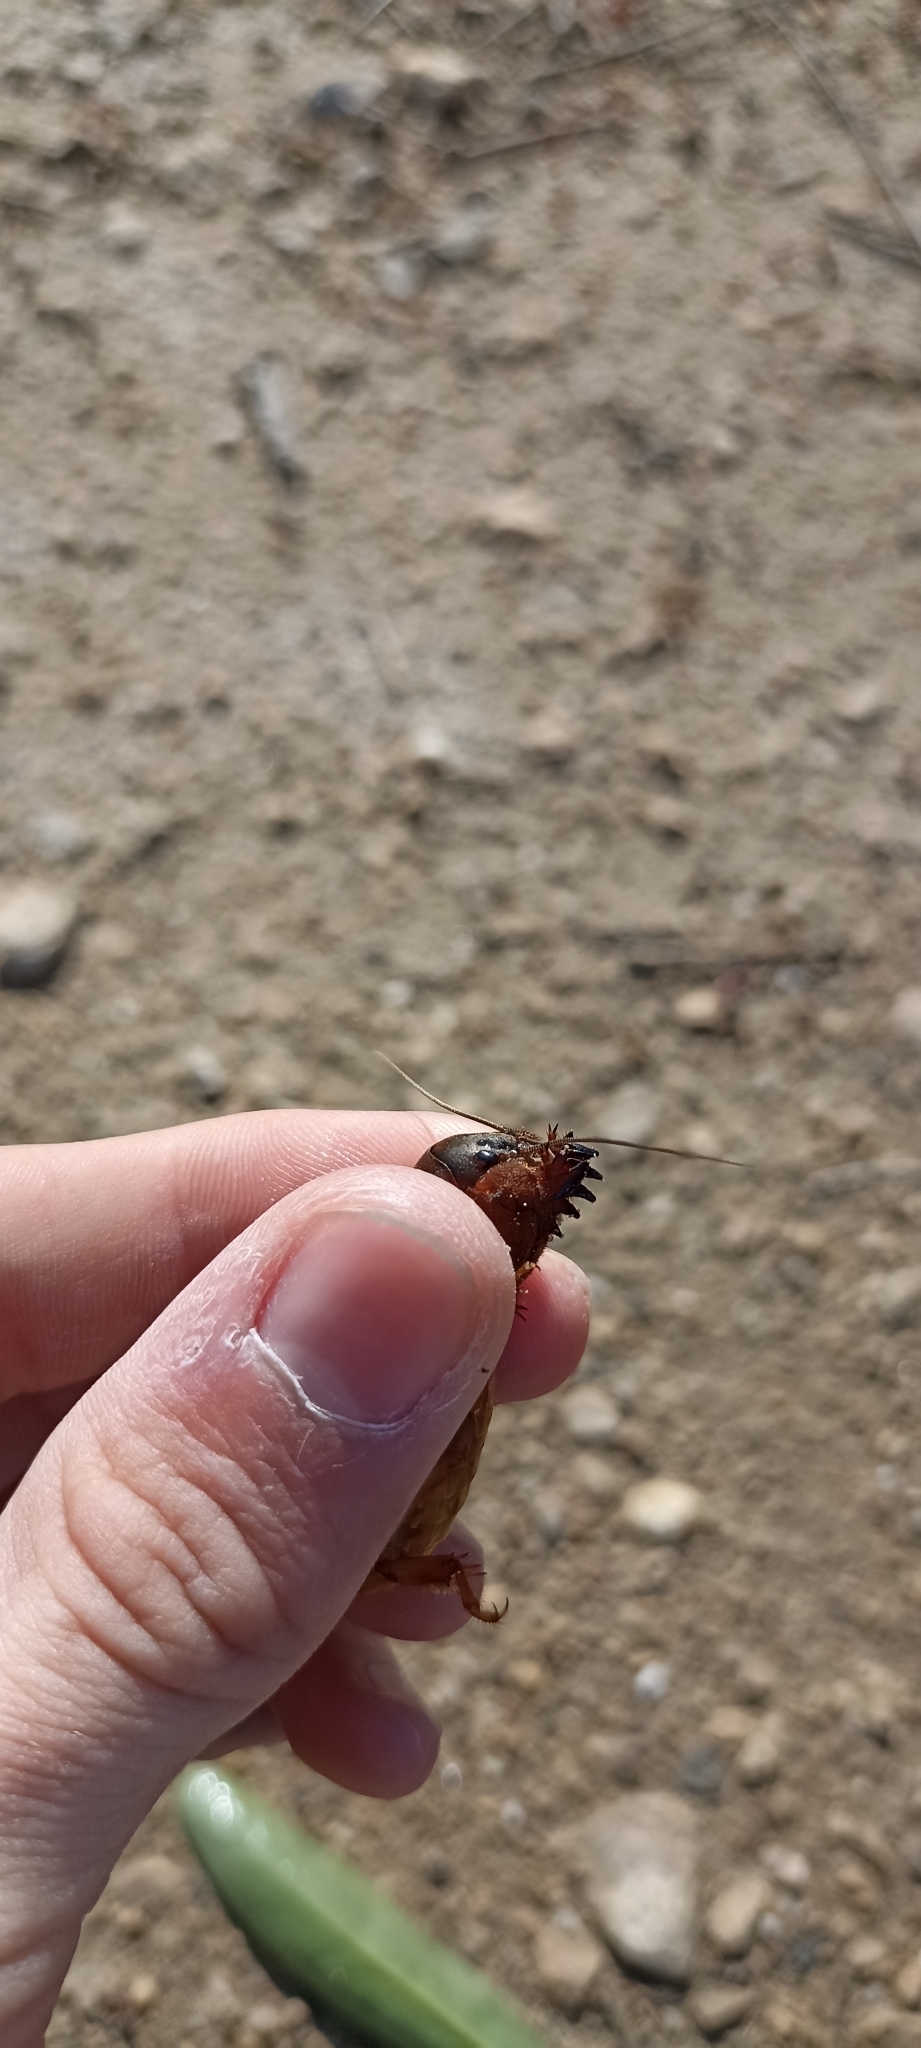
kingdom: Animalia
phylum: Arthropoda
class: Insecta
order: Orthoptera
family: Gryllotalpidae
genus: Gryllotalpa
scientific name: Gryllotalpa septemdecimchromosomica
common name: Seventeen-chromosome mole-cricket
